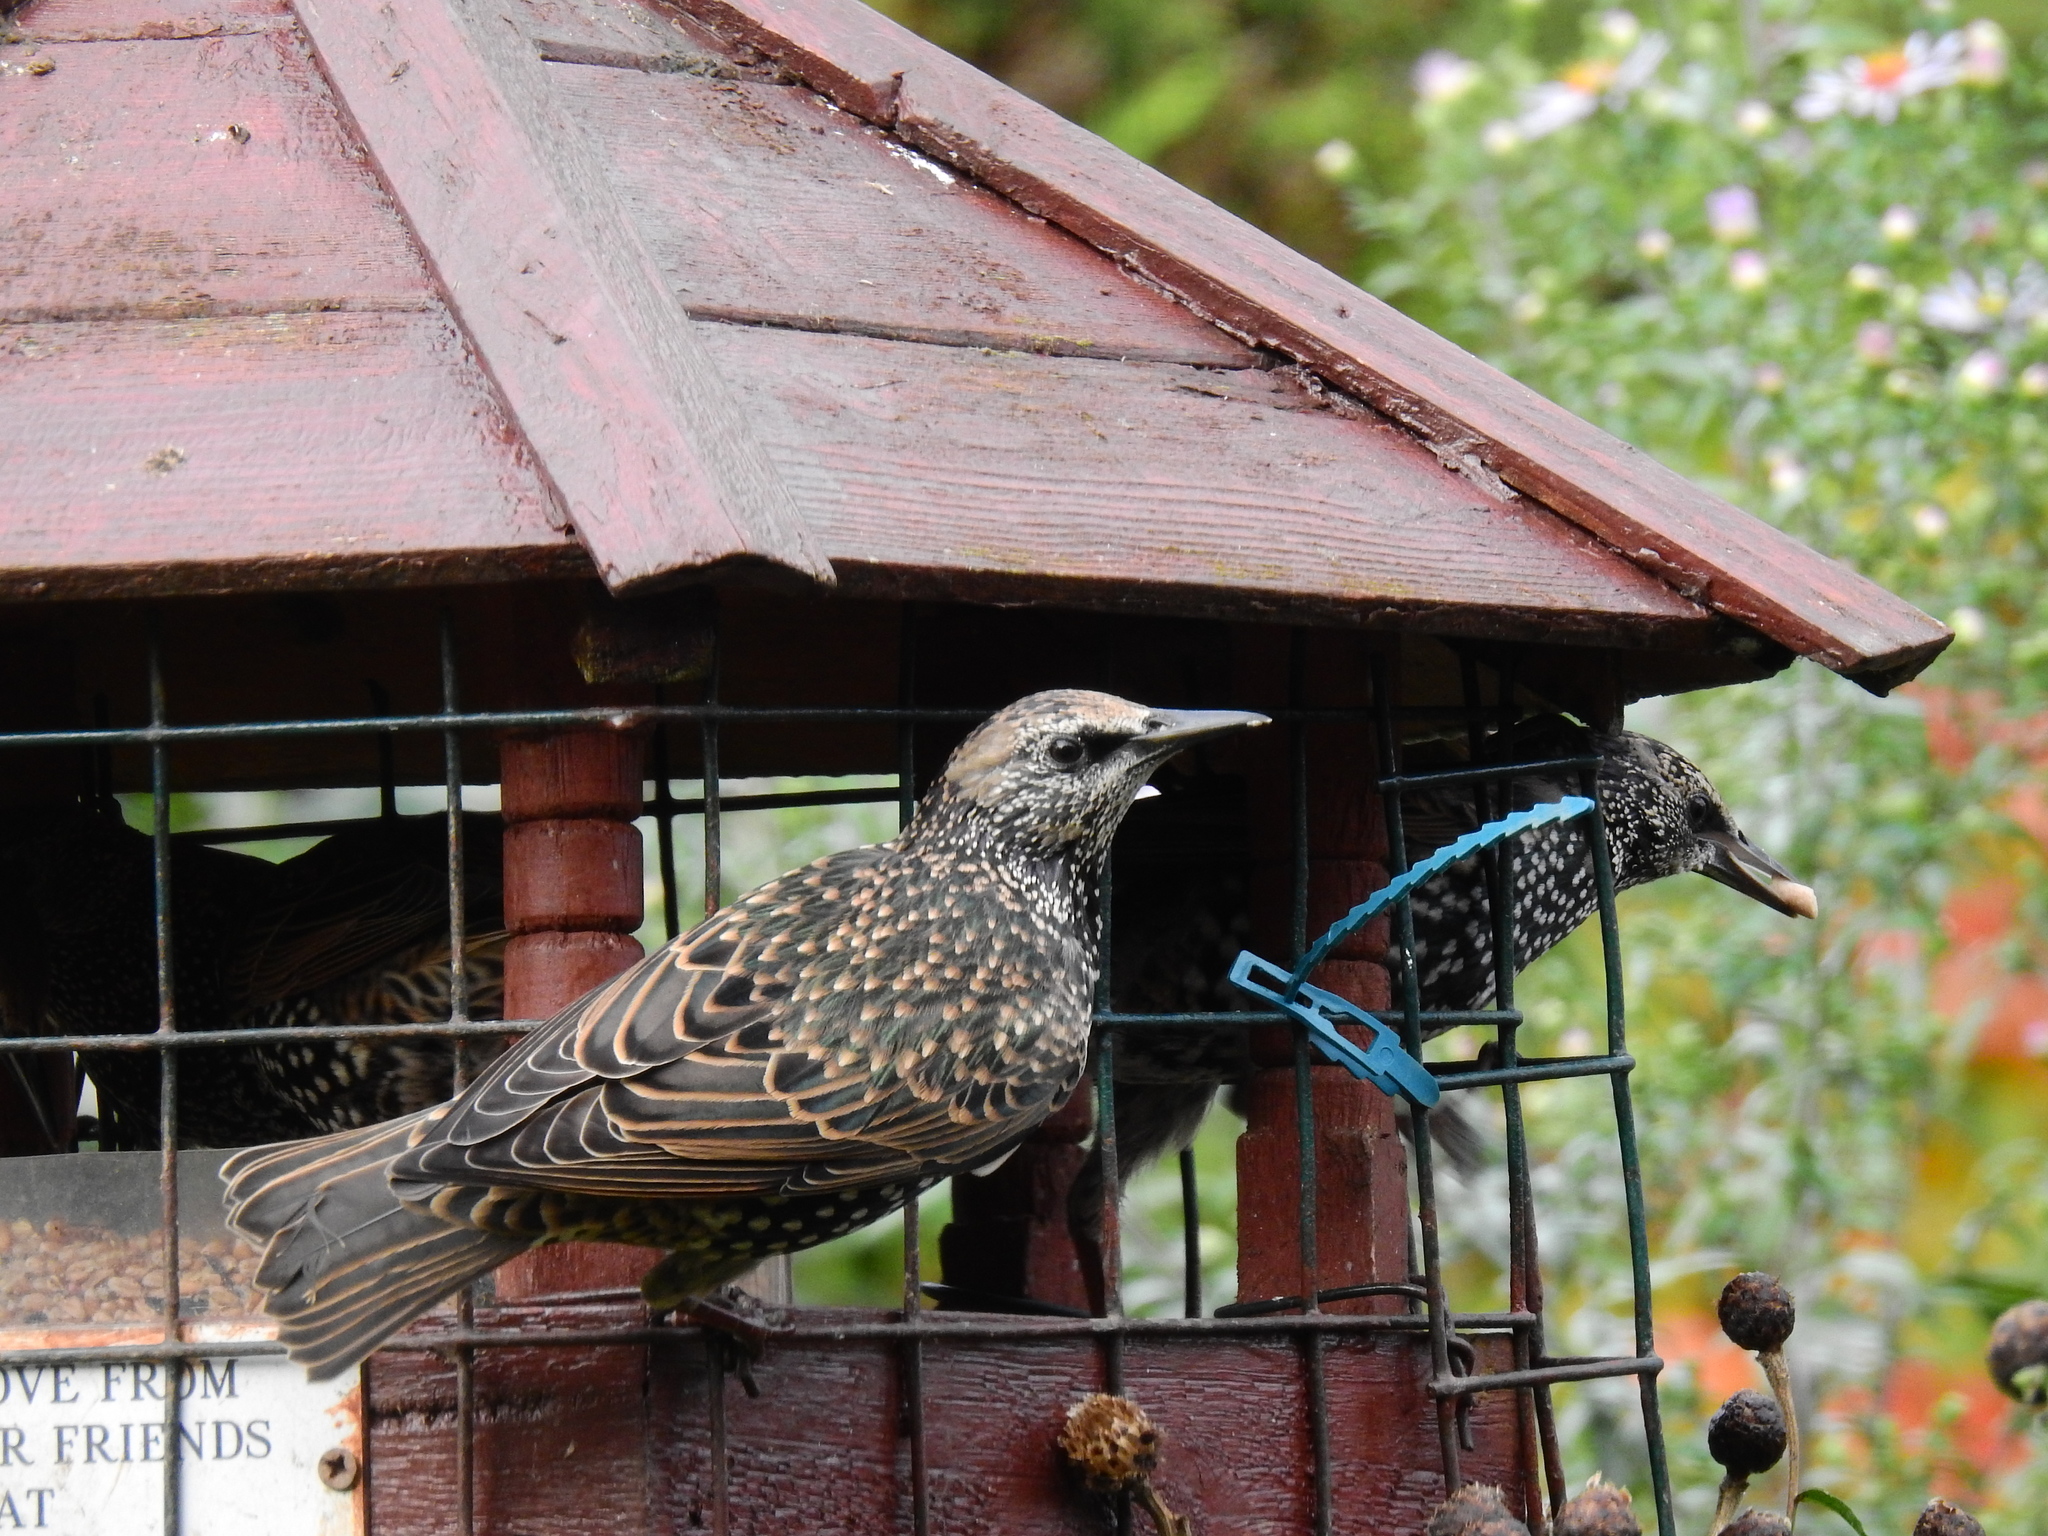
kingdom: Animalia
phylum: Chordata
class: Aves
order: Passeriformes
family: Sturnidae
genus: Sturnus
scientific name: Sturnus vulgaris
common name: Common starling
